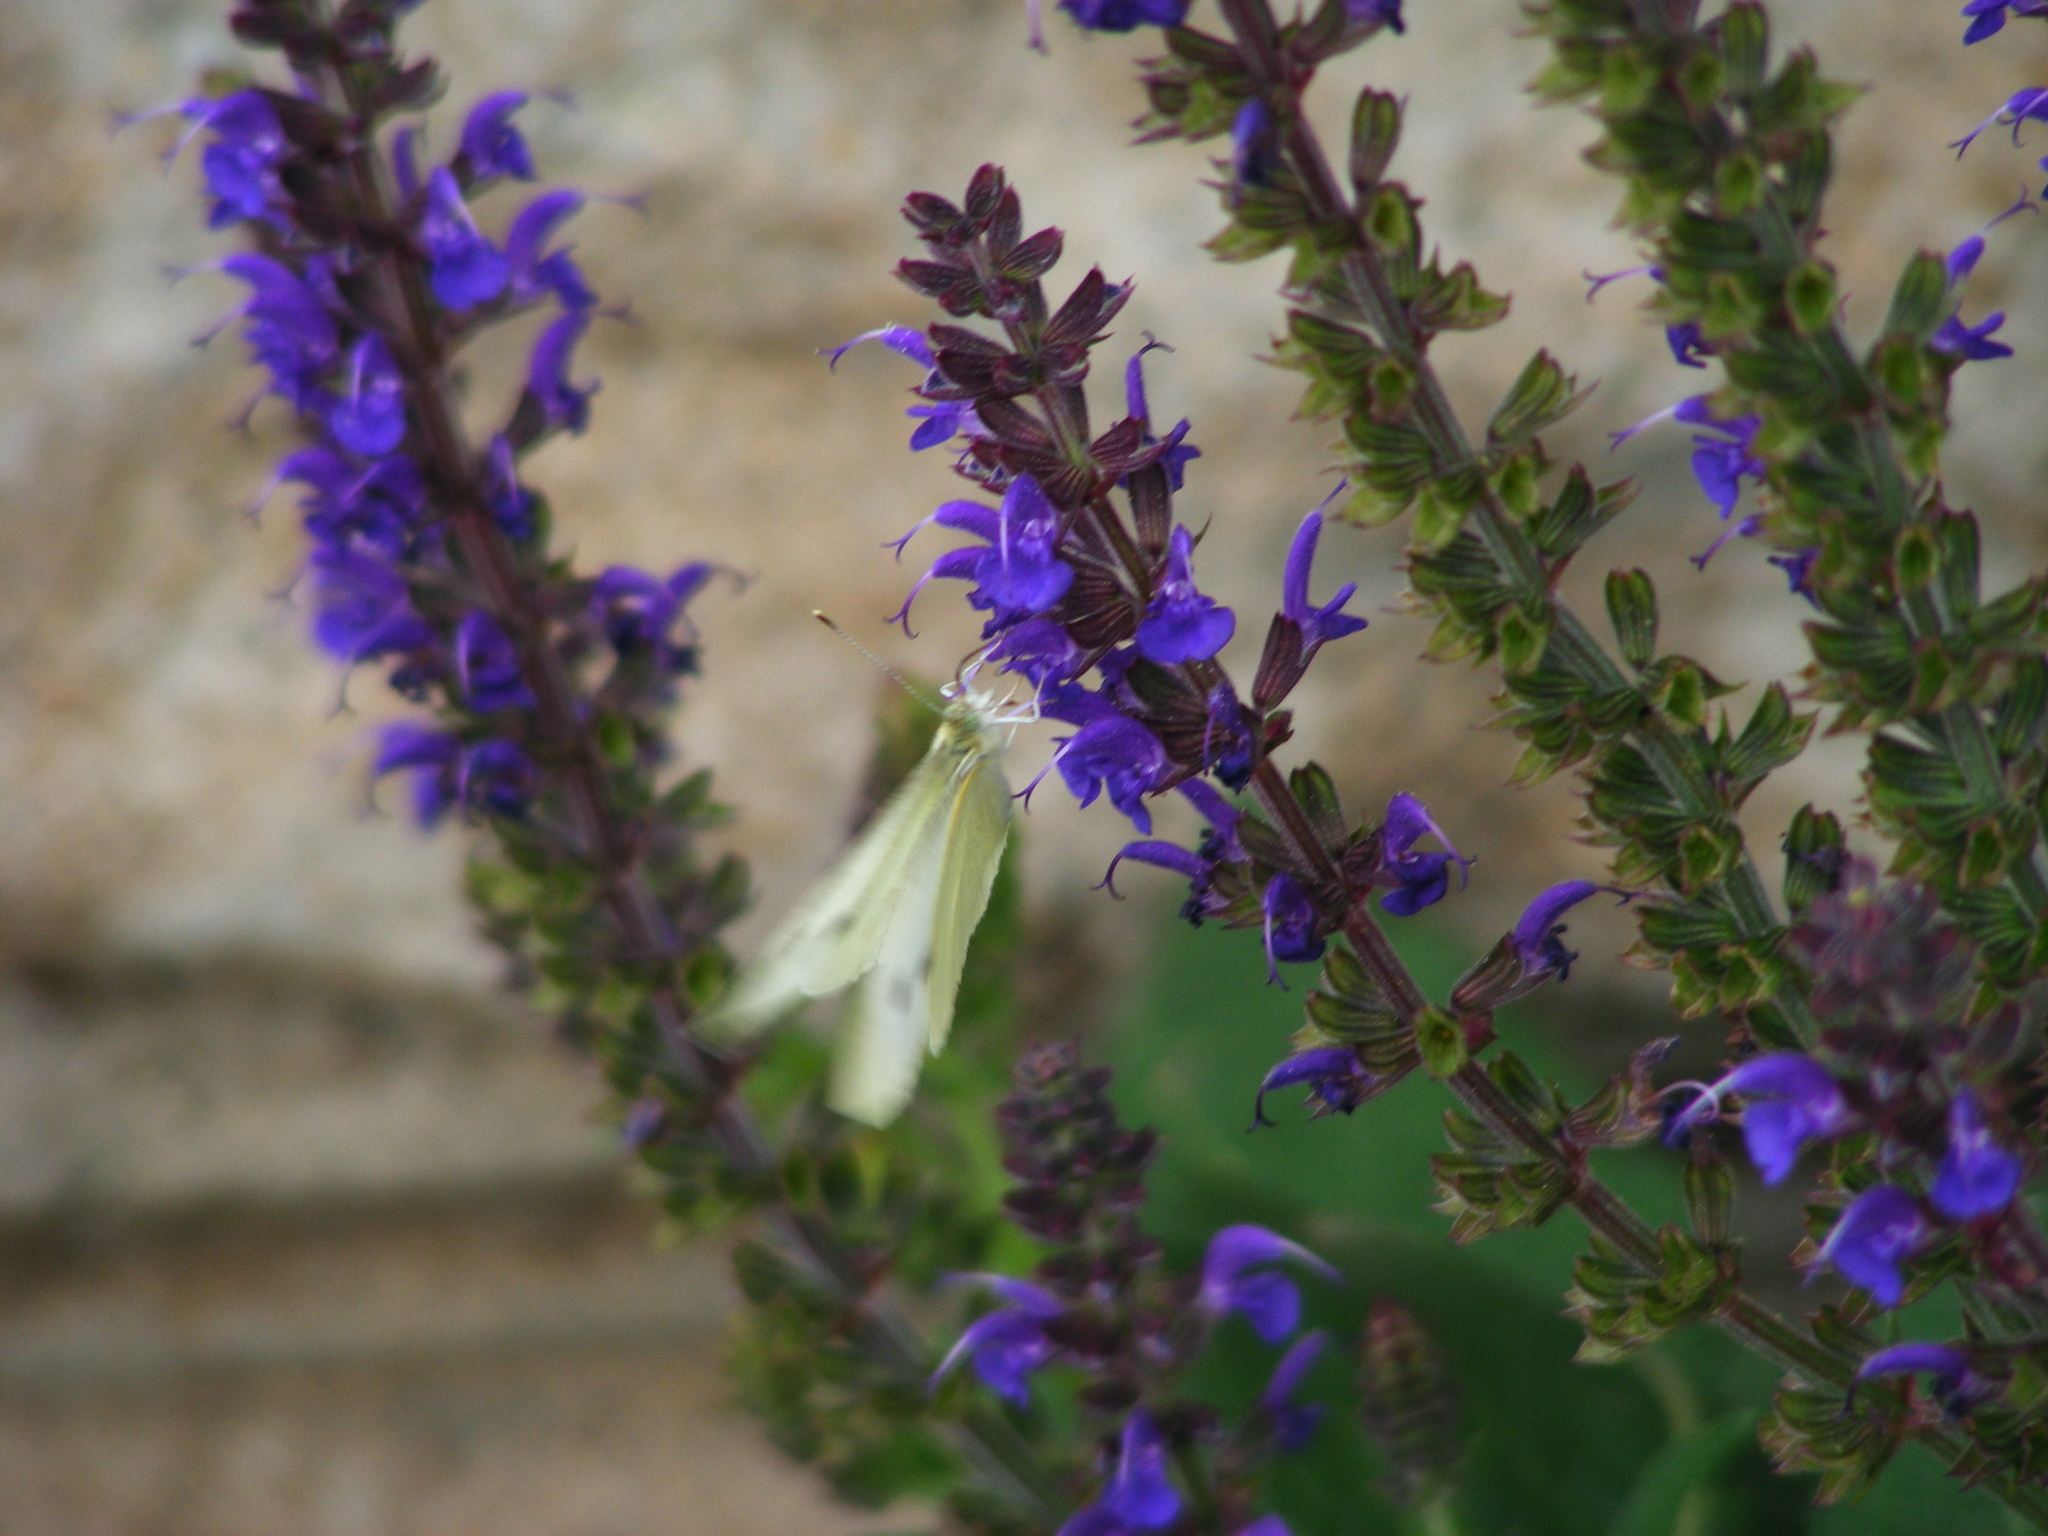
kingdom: Animalia
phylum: Arthropoda
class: Insecta
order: Lepidoptera
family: Pieridae
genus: Pieris
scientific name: Pieris rapae
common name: Small white
